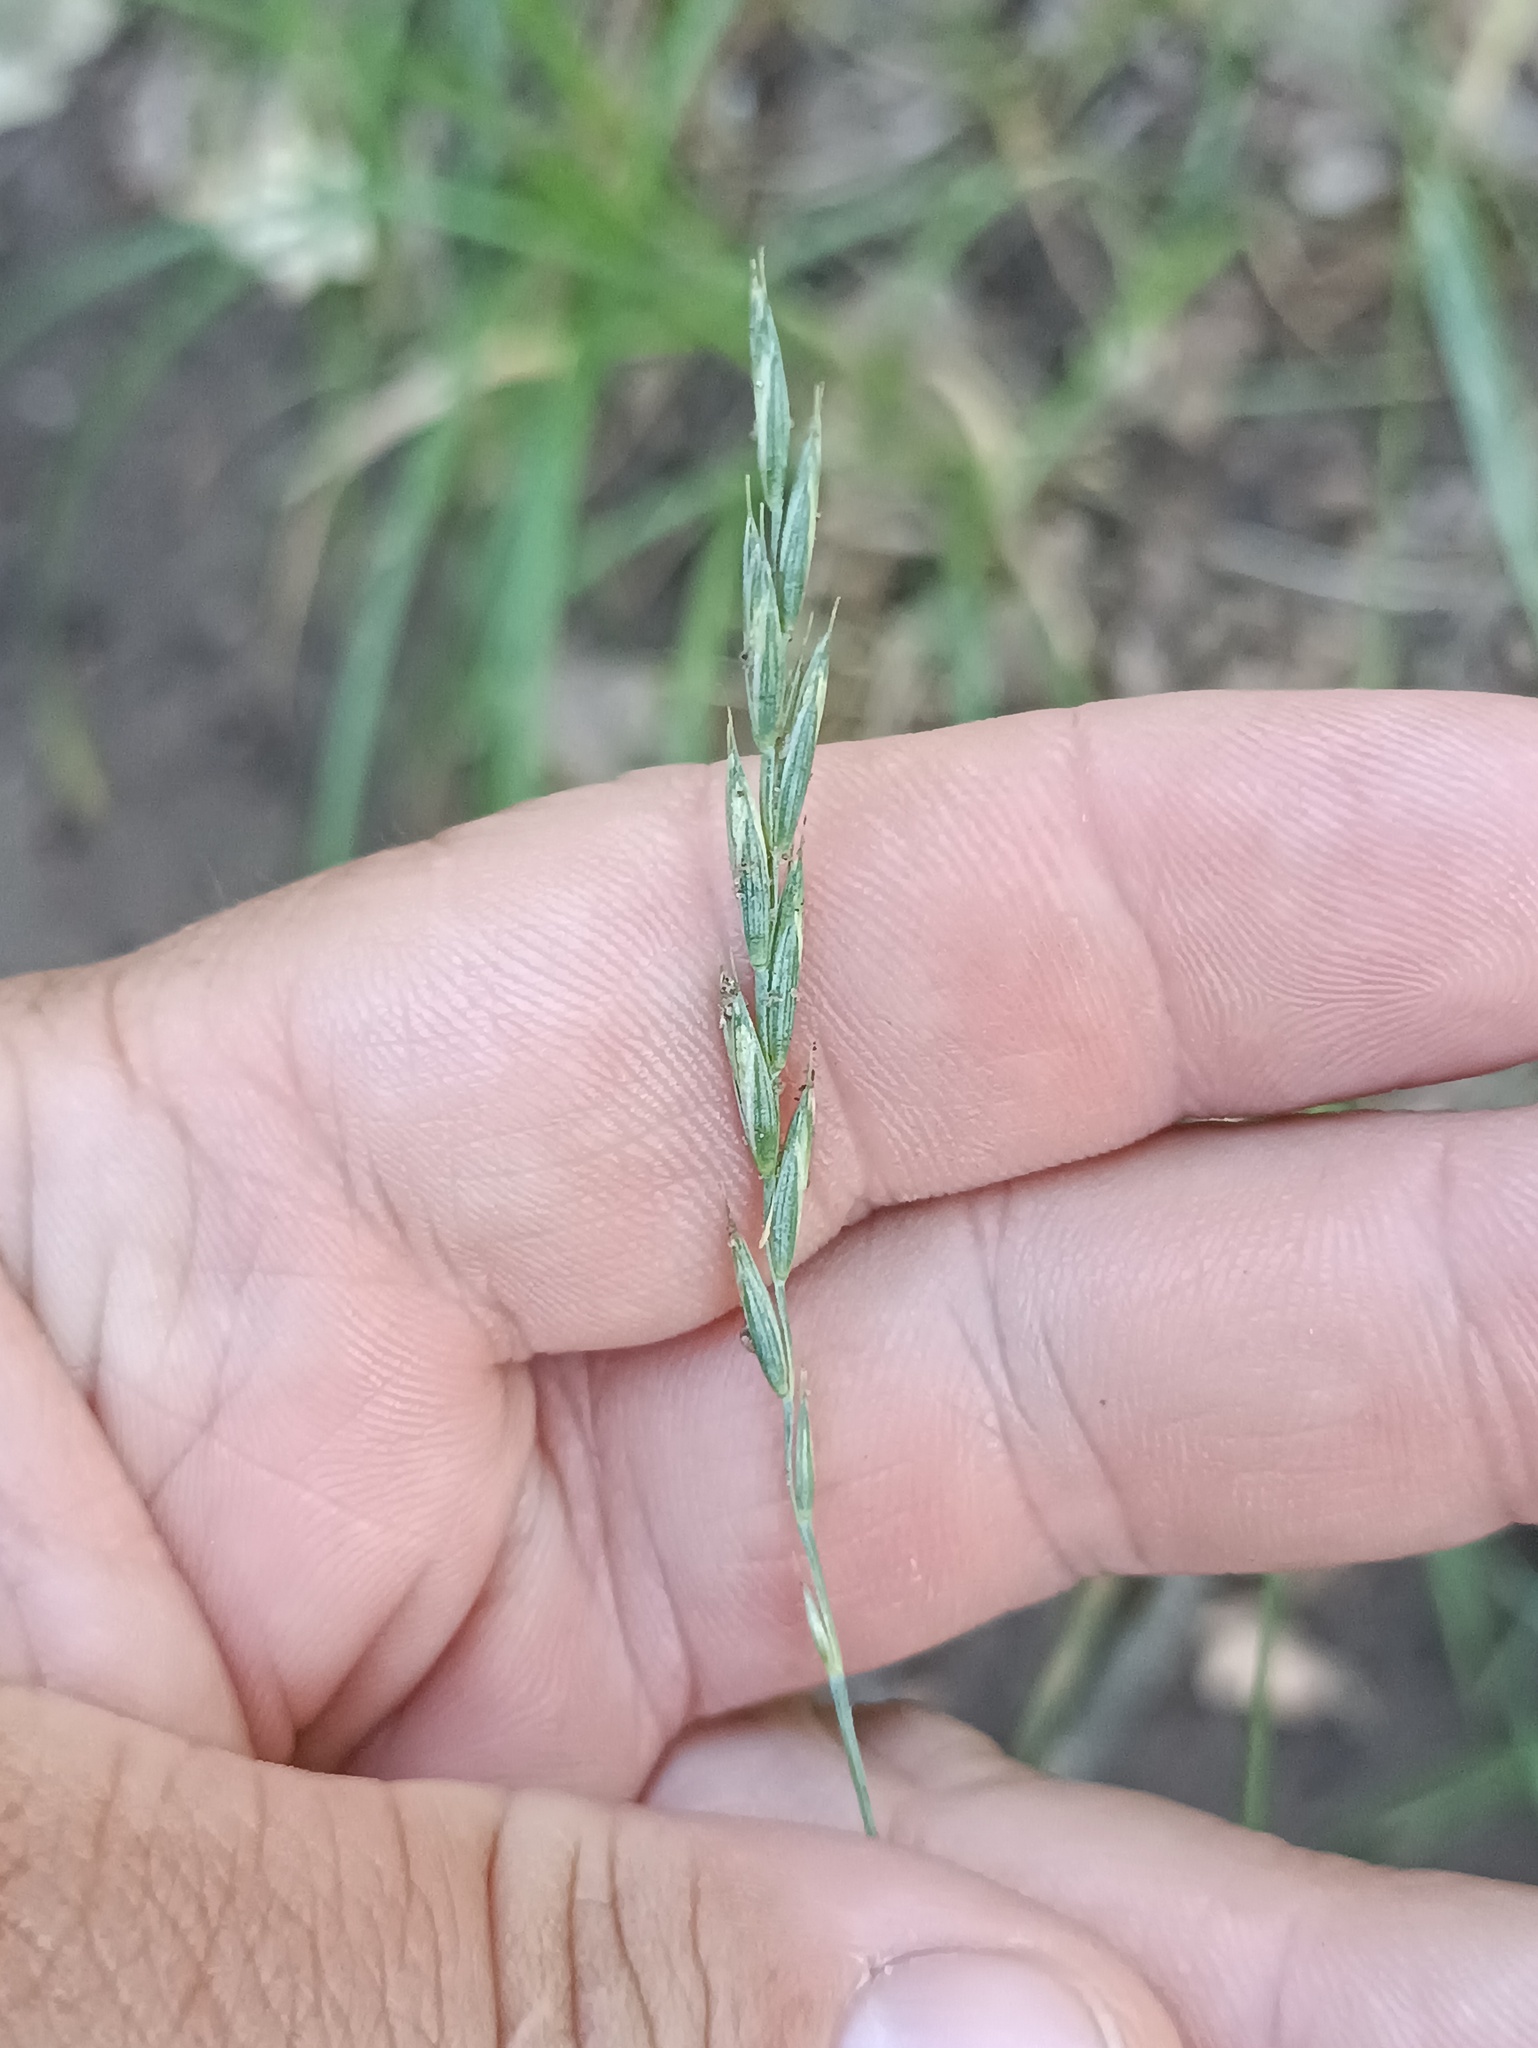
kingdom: Plantae
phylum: Tracheophyta
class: Liliopsida
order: Poales
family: Poaceae
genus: Elymus
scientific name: Elymus repens
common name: Quackgrass
